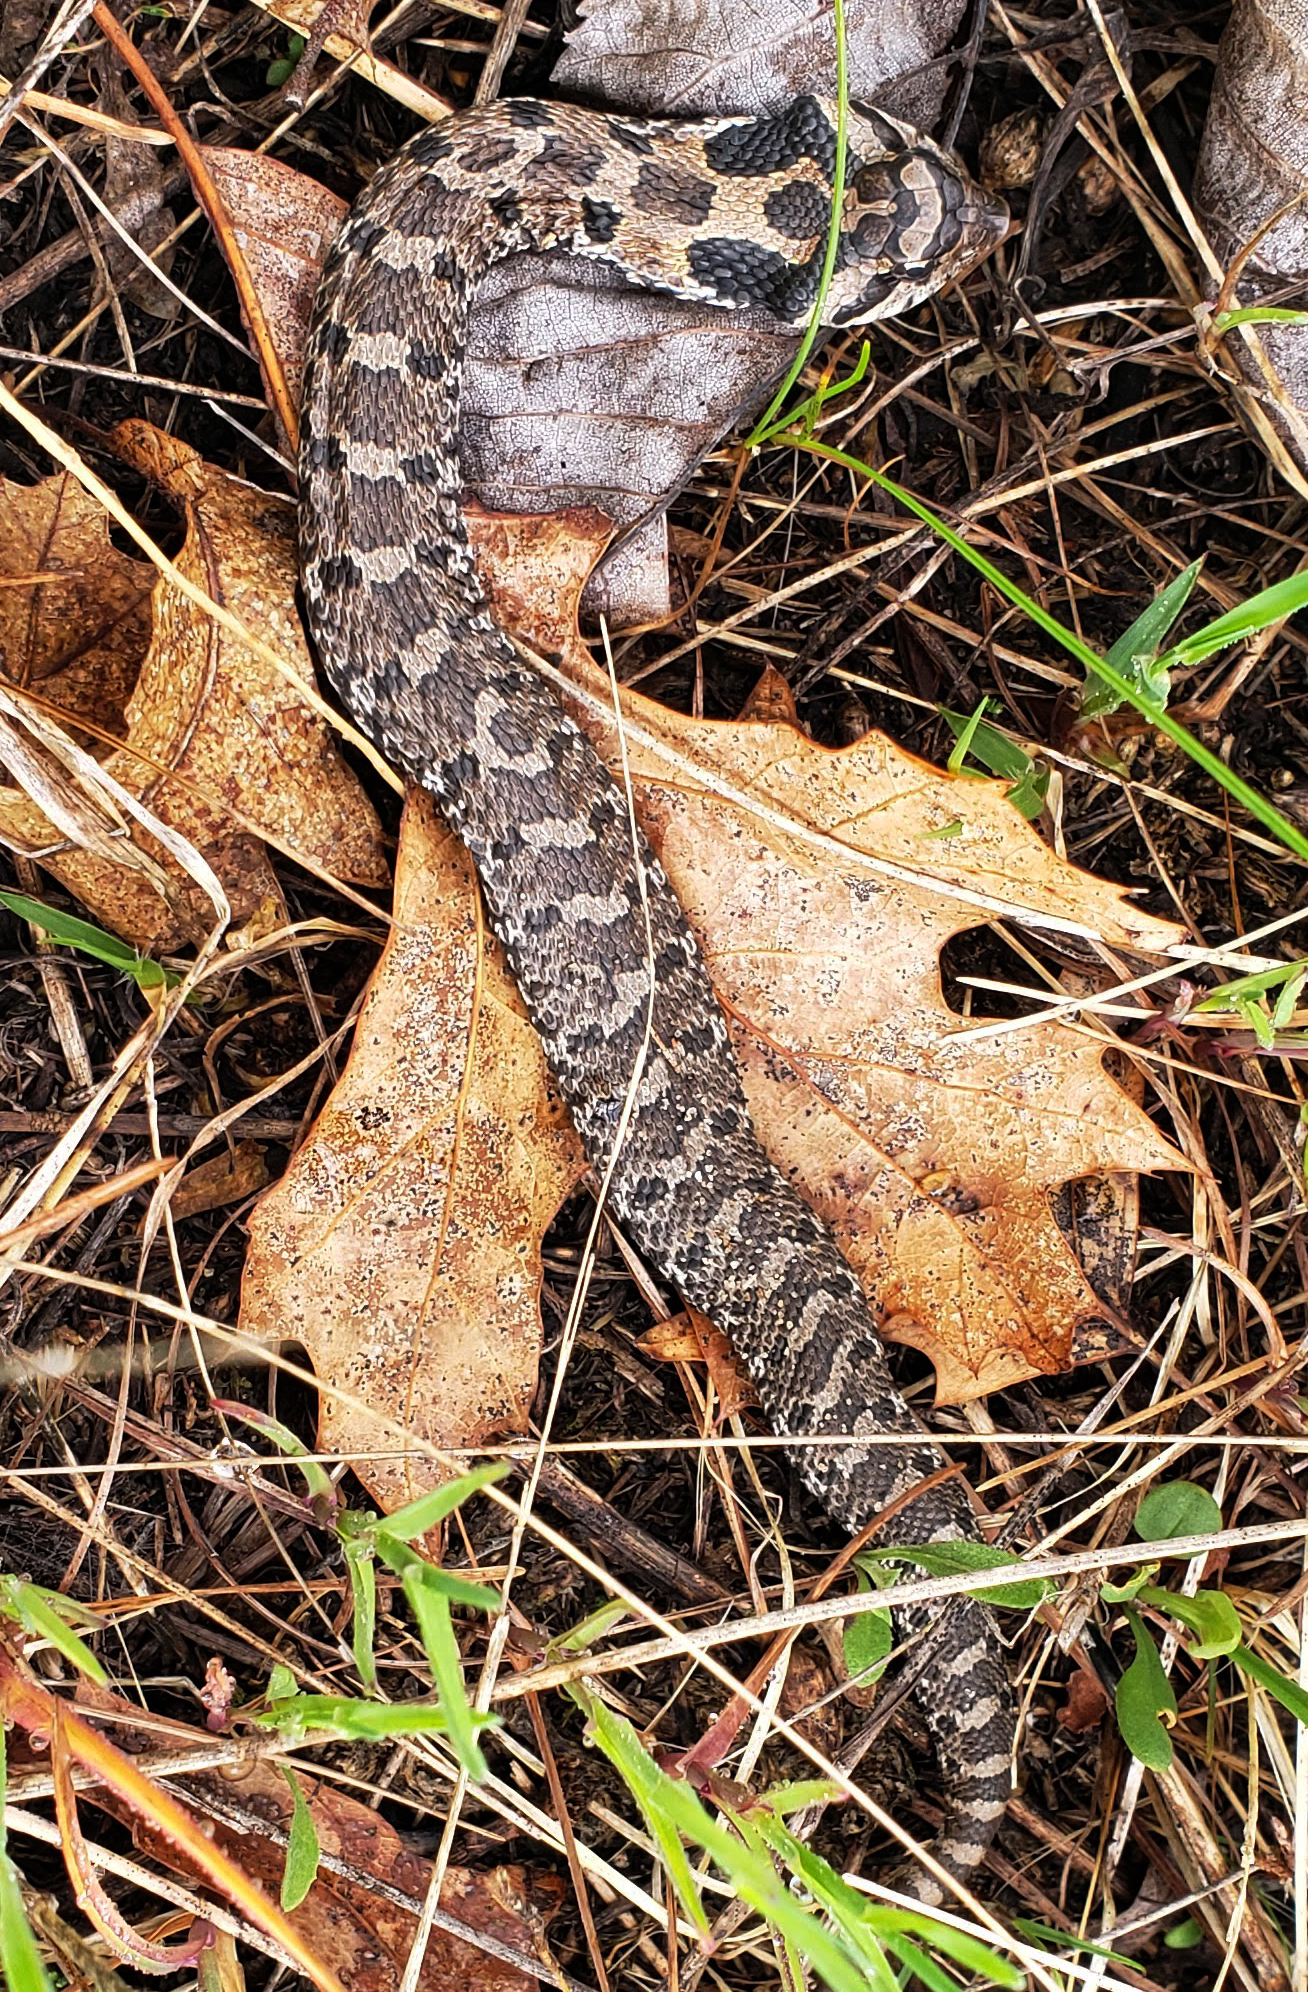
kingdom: Animalia
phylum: Chordata
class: Squamata
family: Colubridae
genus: Heterodon
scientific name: Heterodon platirhinos
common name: Eastern hognose snake
